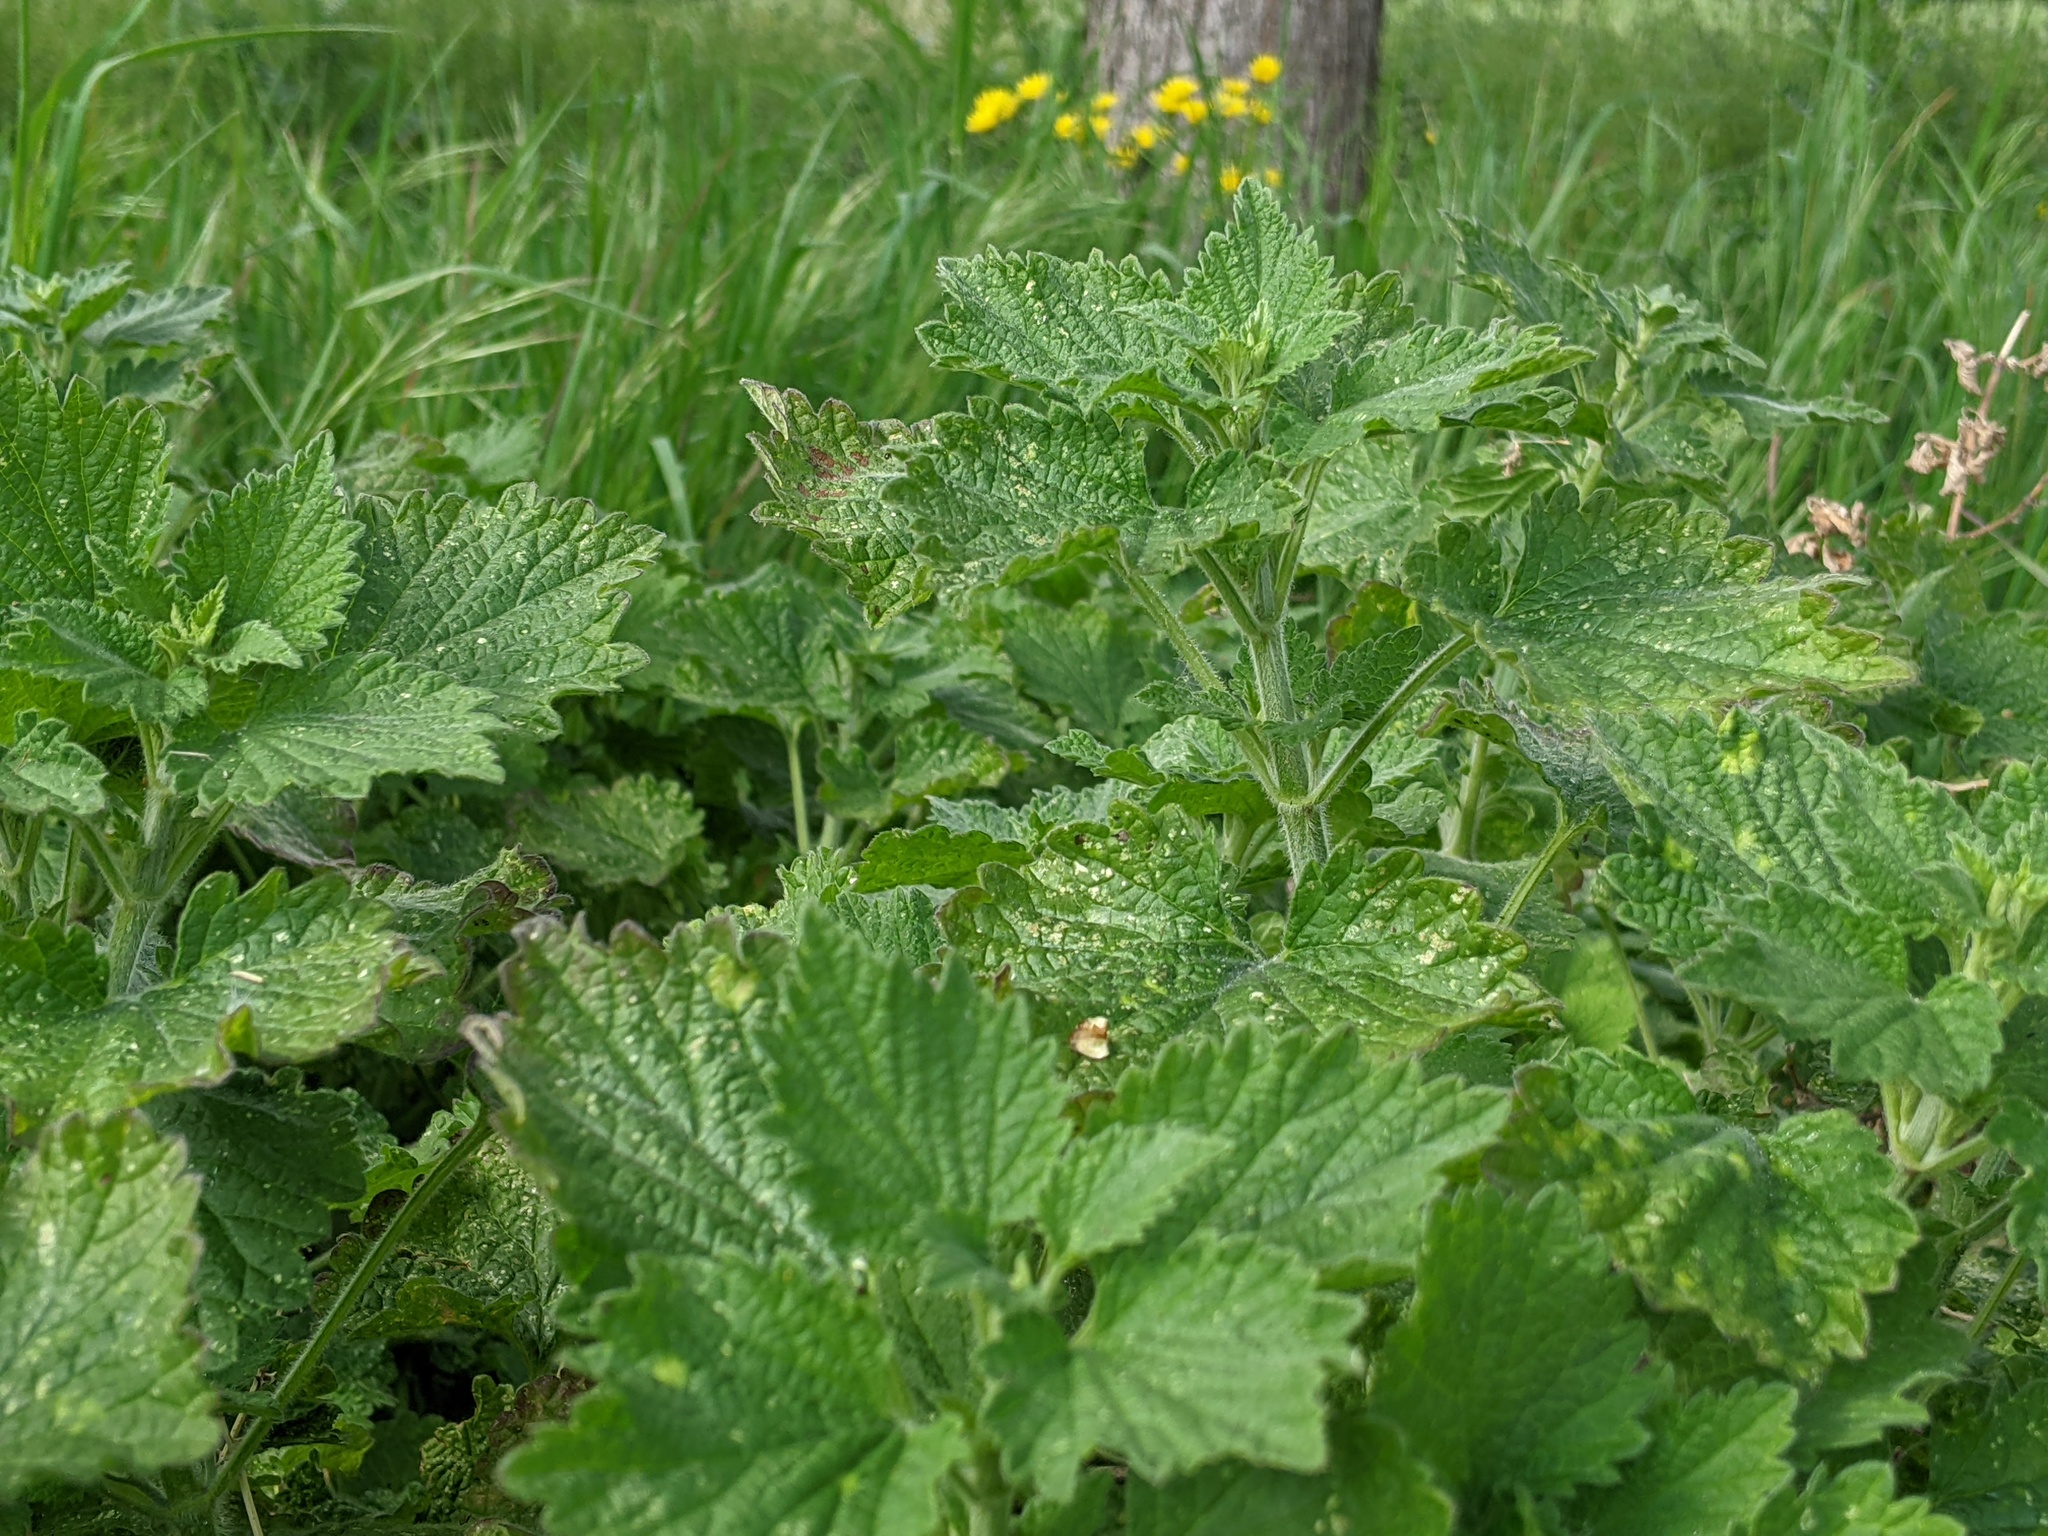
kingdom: Plantae
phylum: Tracheophyta
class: Magnoliopsida
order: Lamiales
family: Lamiaceae
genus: Ballota
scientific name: Ballota nigra
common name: Black horehound
